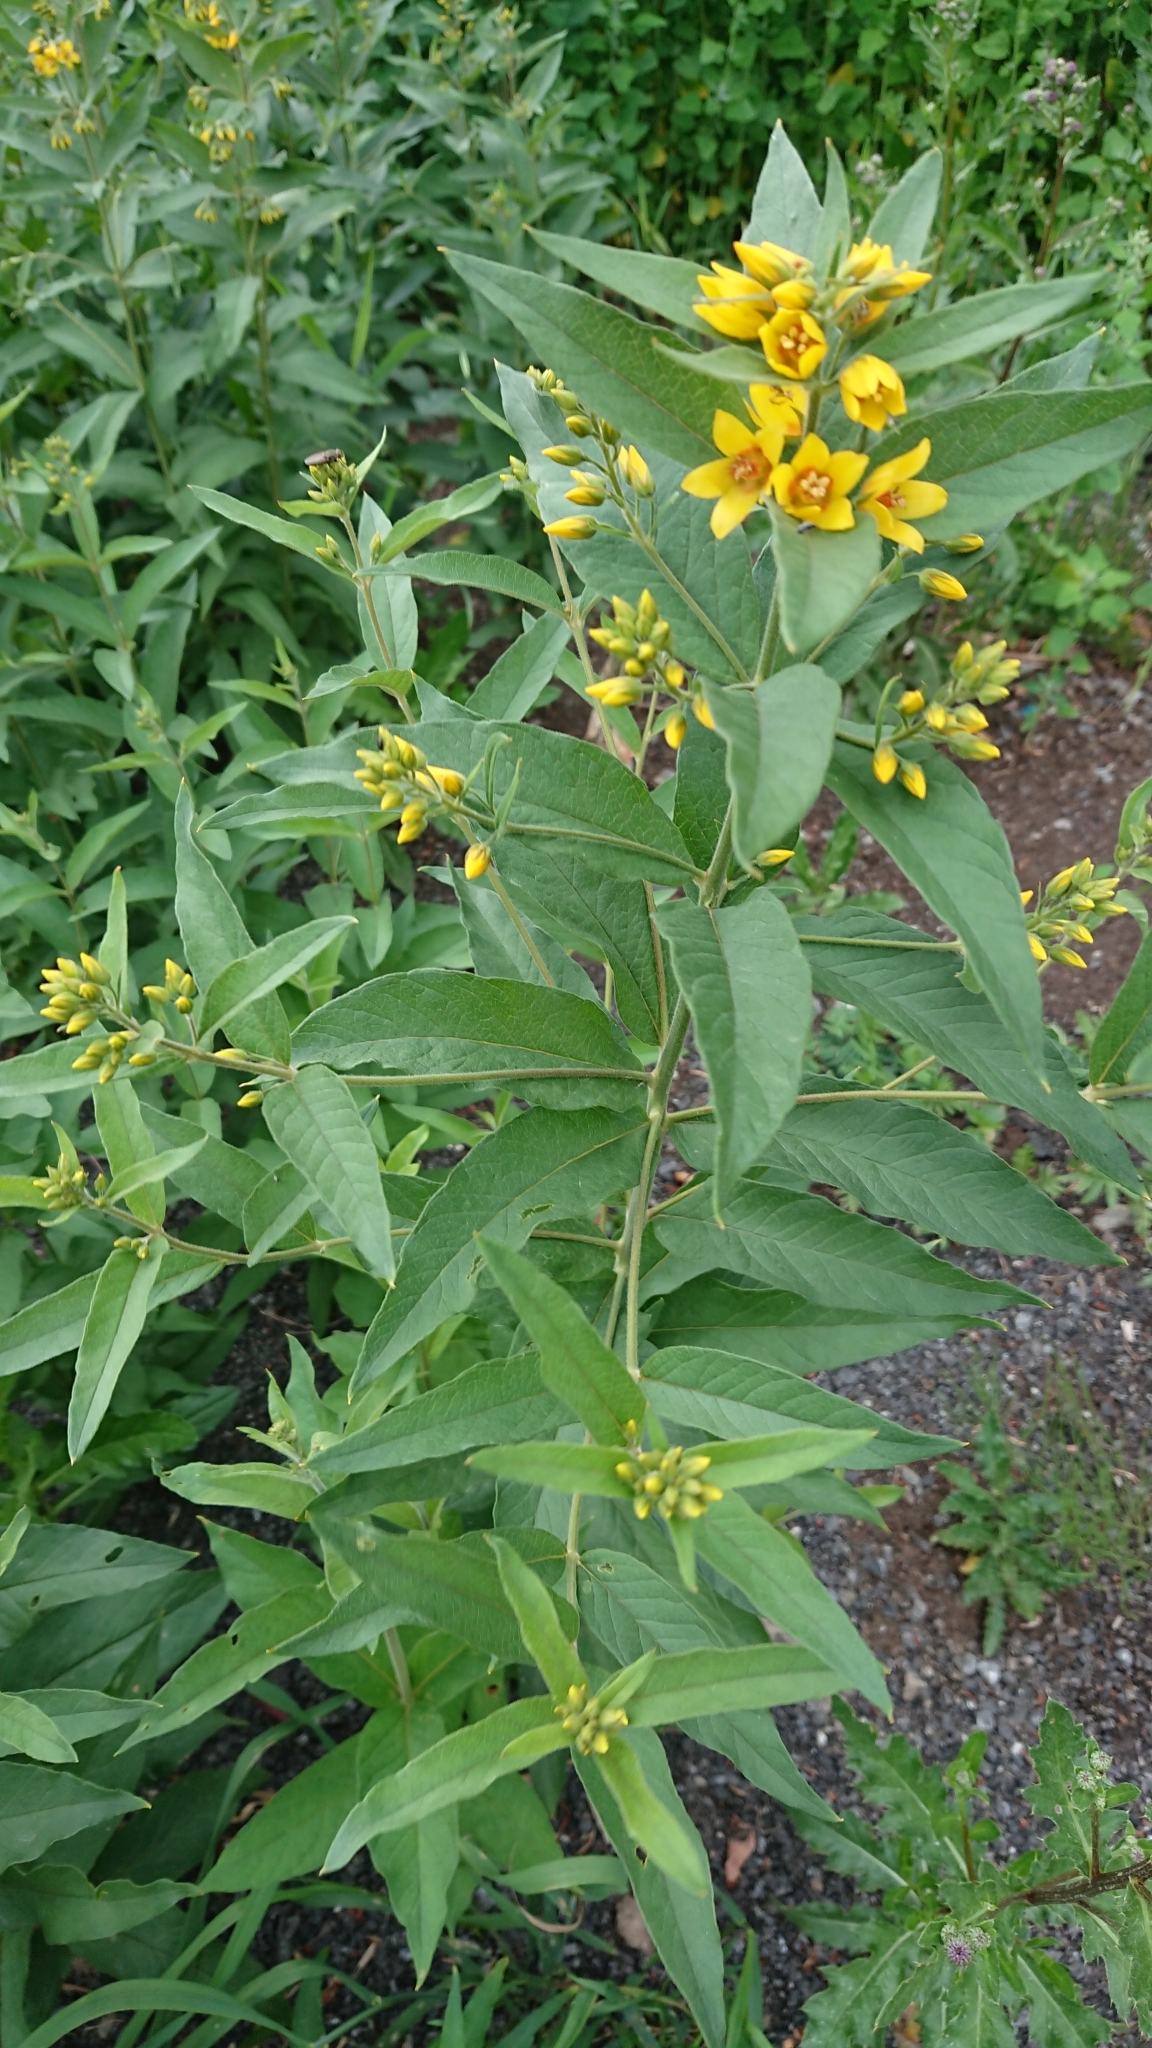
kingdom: Plantae
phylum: Tracheophyta
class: Magnoliopsida
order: Ericales
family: Primulaceae
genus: Lysimachia
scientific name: Lysimachia vulgaris
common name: Yellow loosestrife
